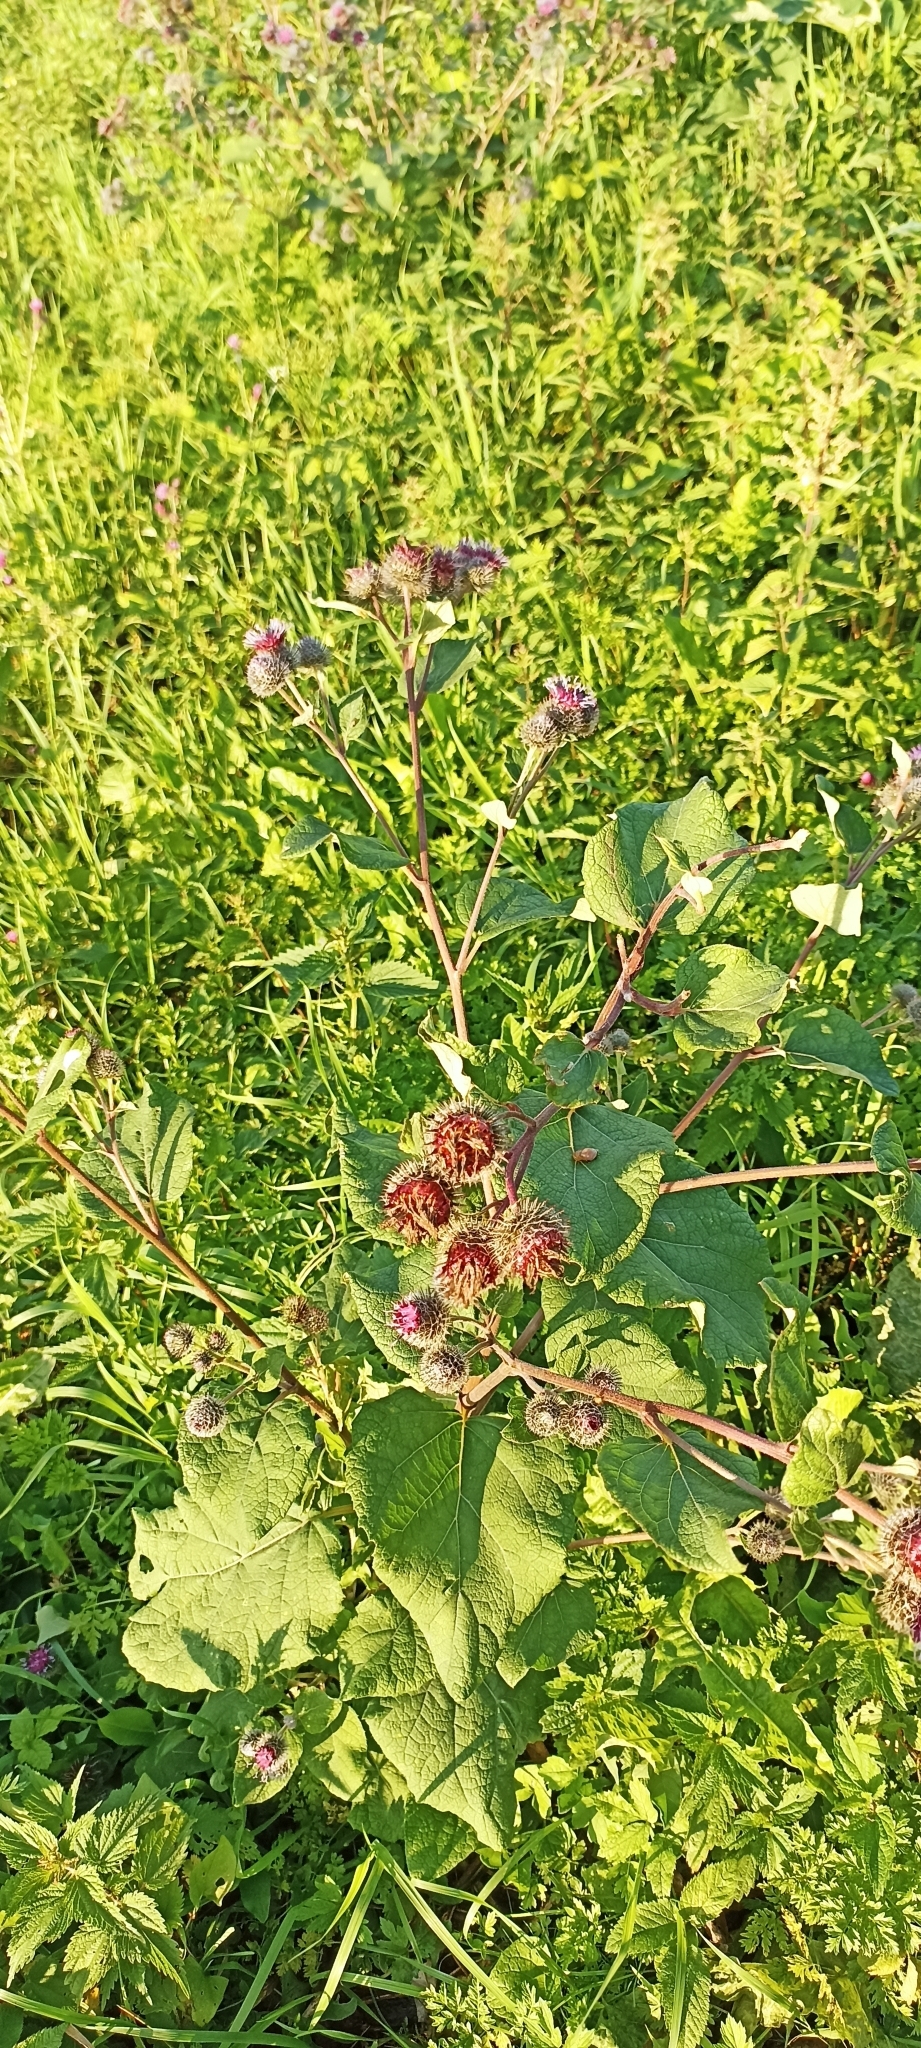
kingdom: Plantae
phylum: Tracheophyta
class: Magnoliopsida
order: Asterales
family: Asteraceae
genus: Arctium
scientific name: Arctium tomentosum
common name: Woolly burdock
